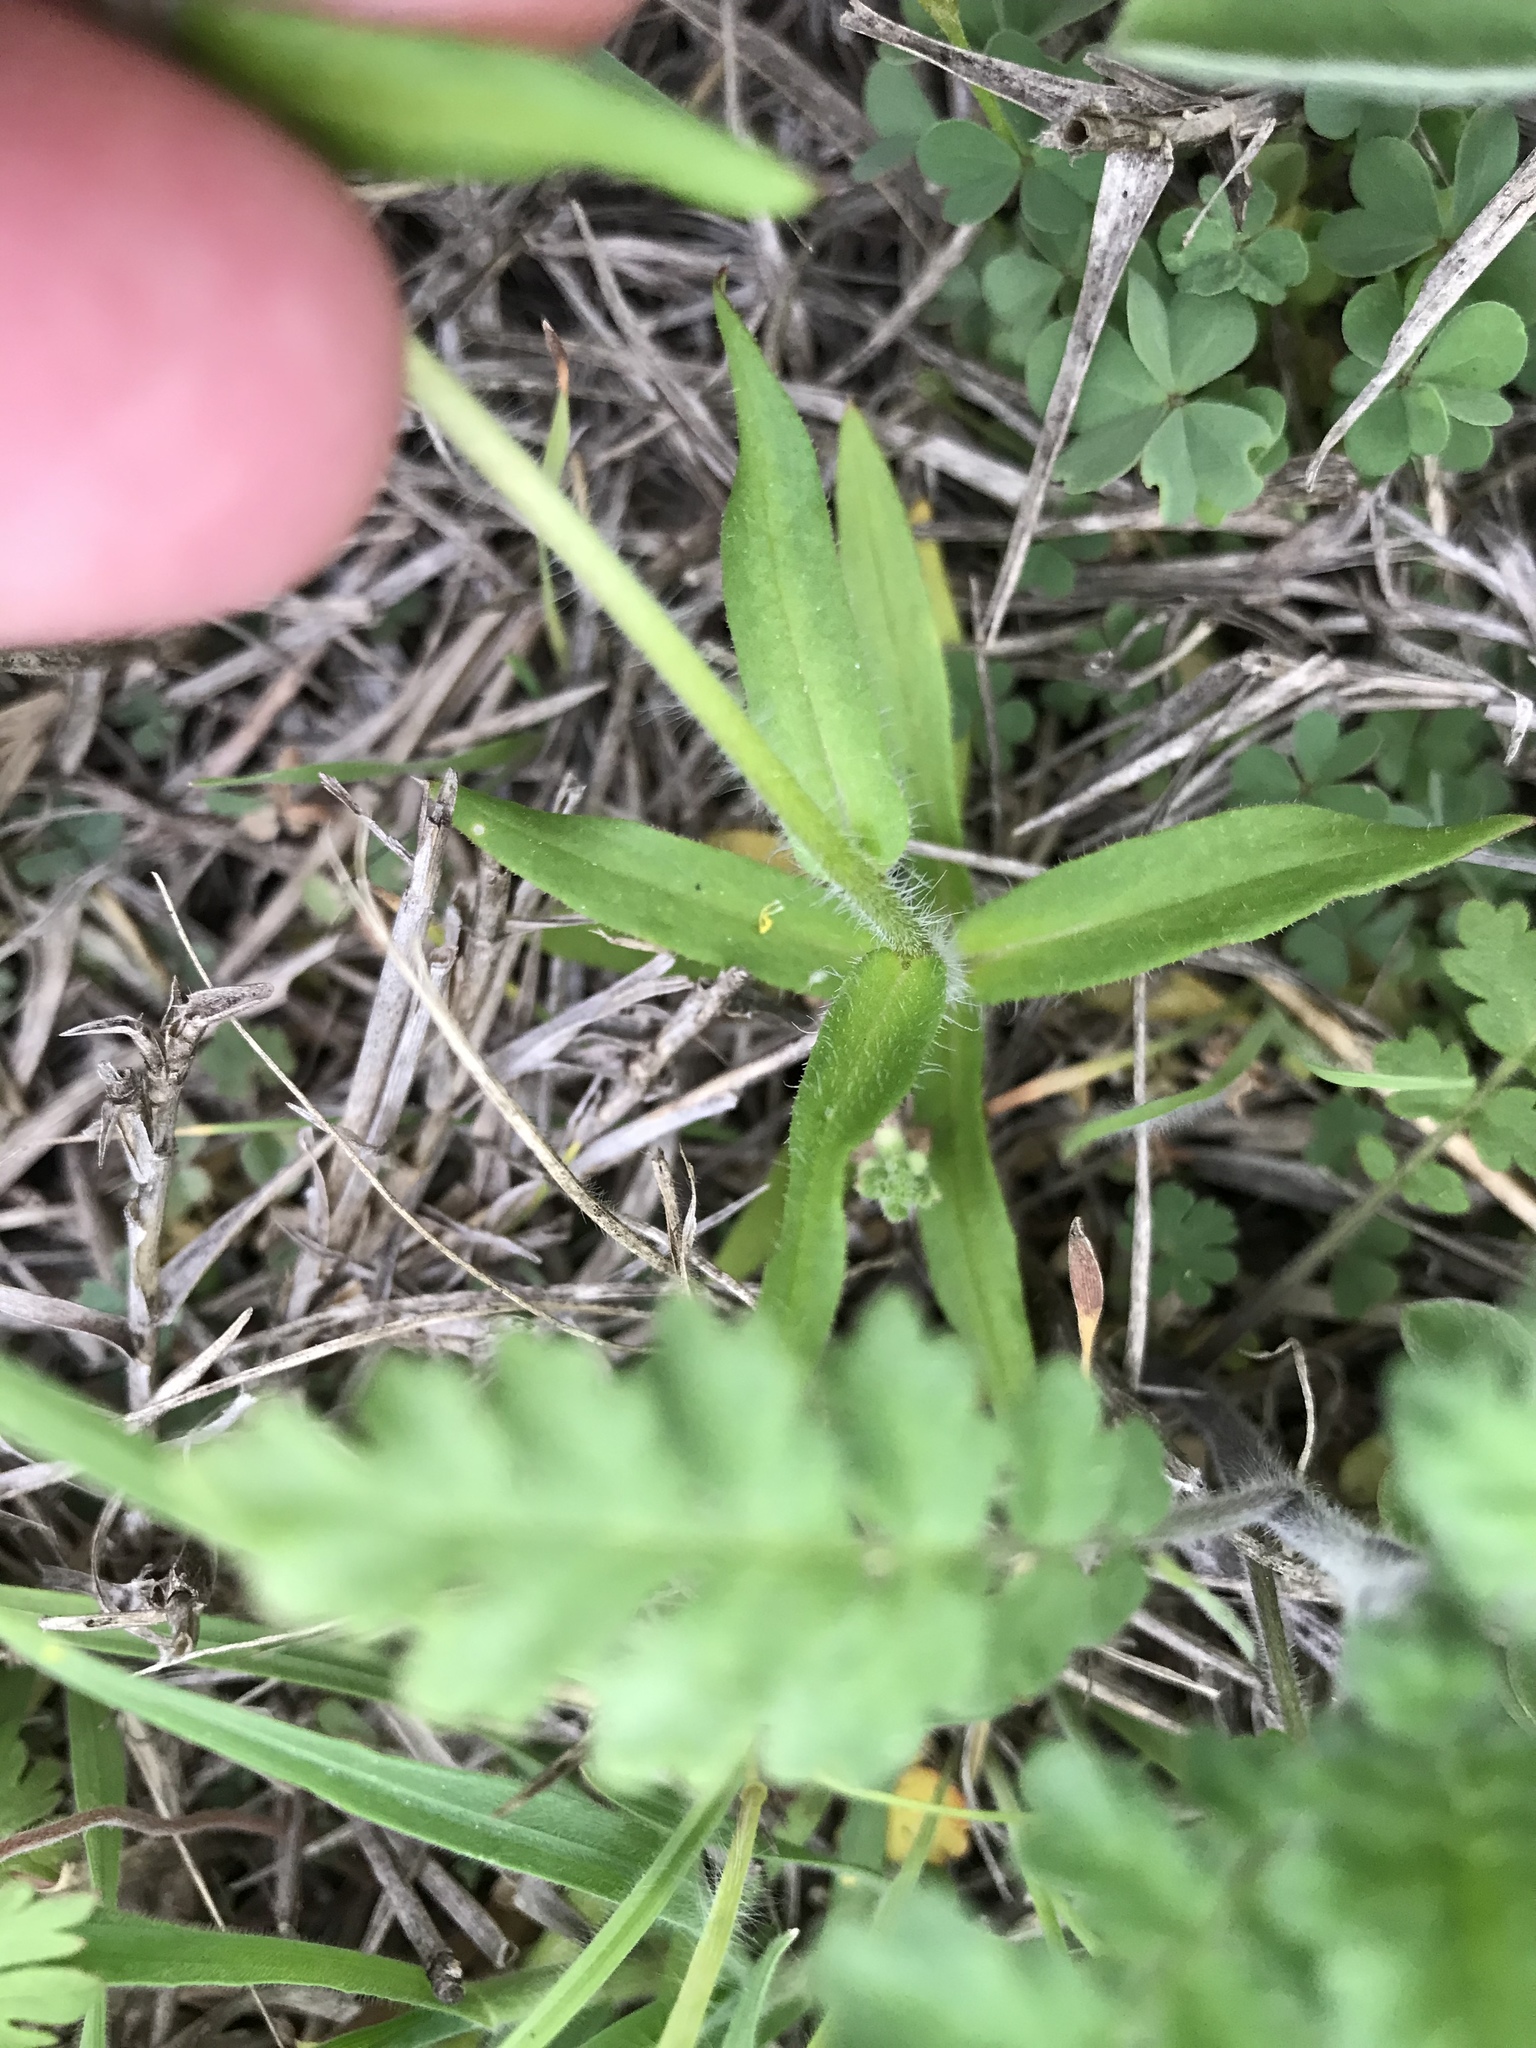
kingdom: Plantae
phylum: Tracheophyta
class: Magnoliopsida
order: Ericales
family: Polemoniaceae
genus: Phlox
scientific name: Phlox drummondii
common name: Drummond's phlox
